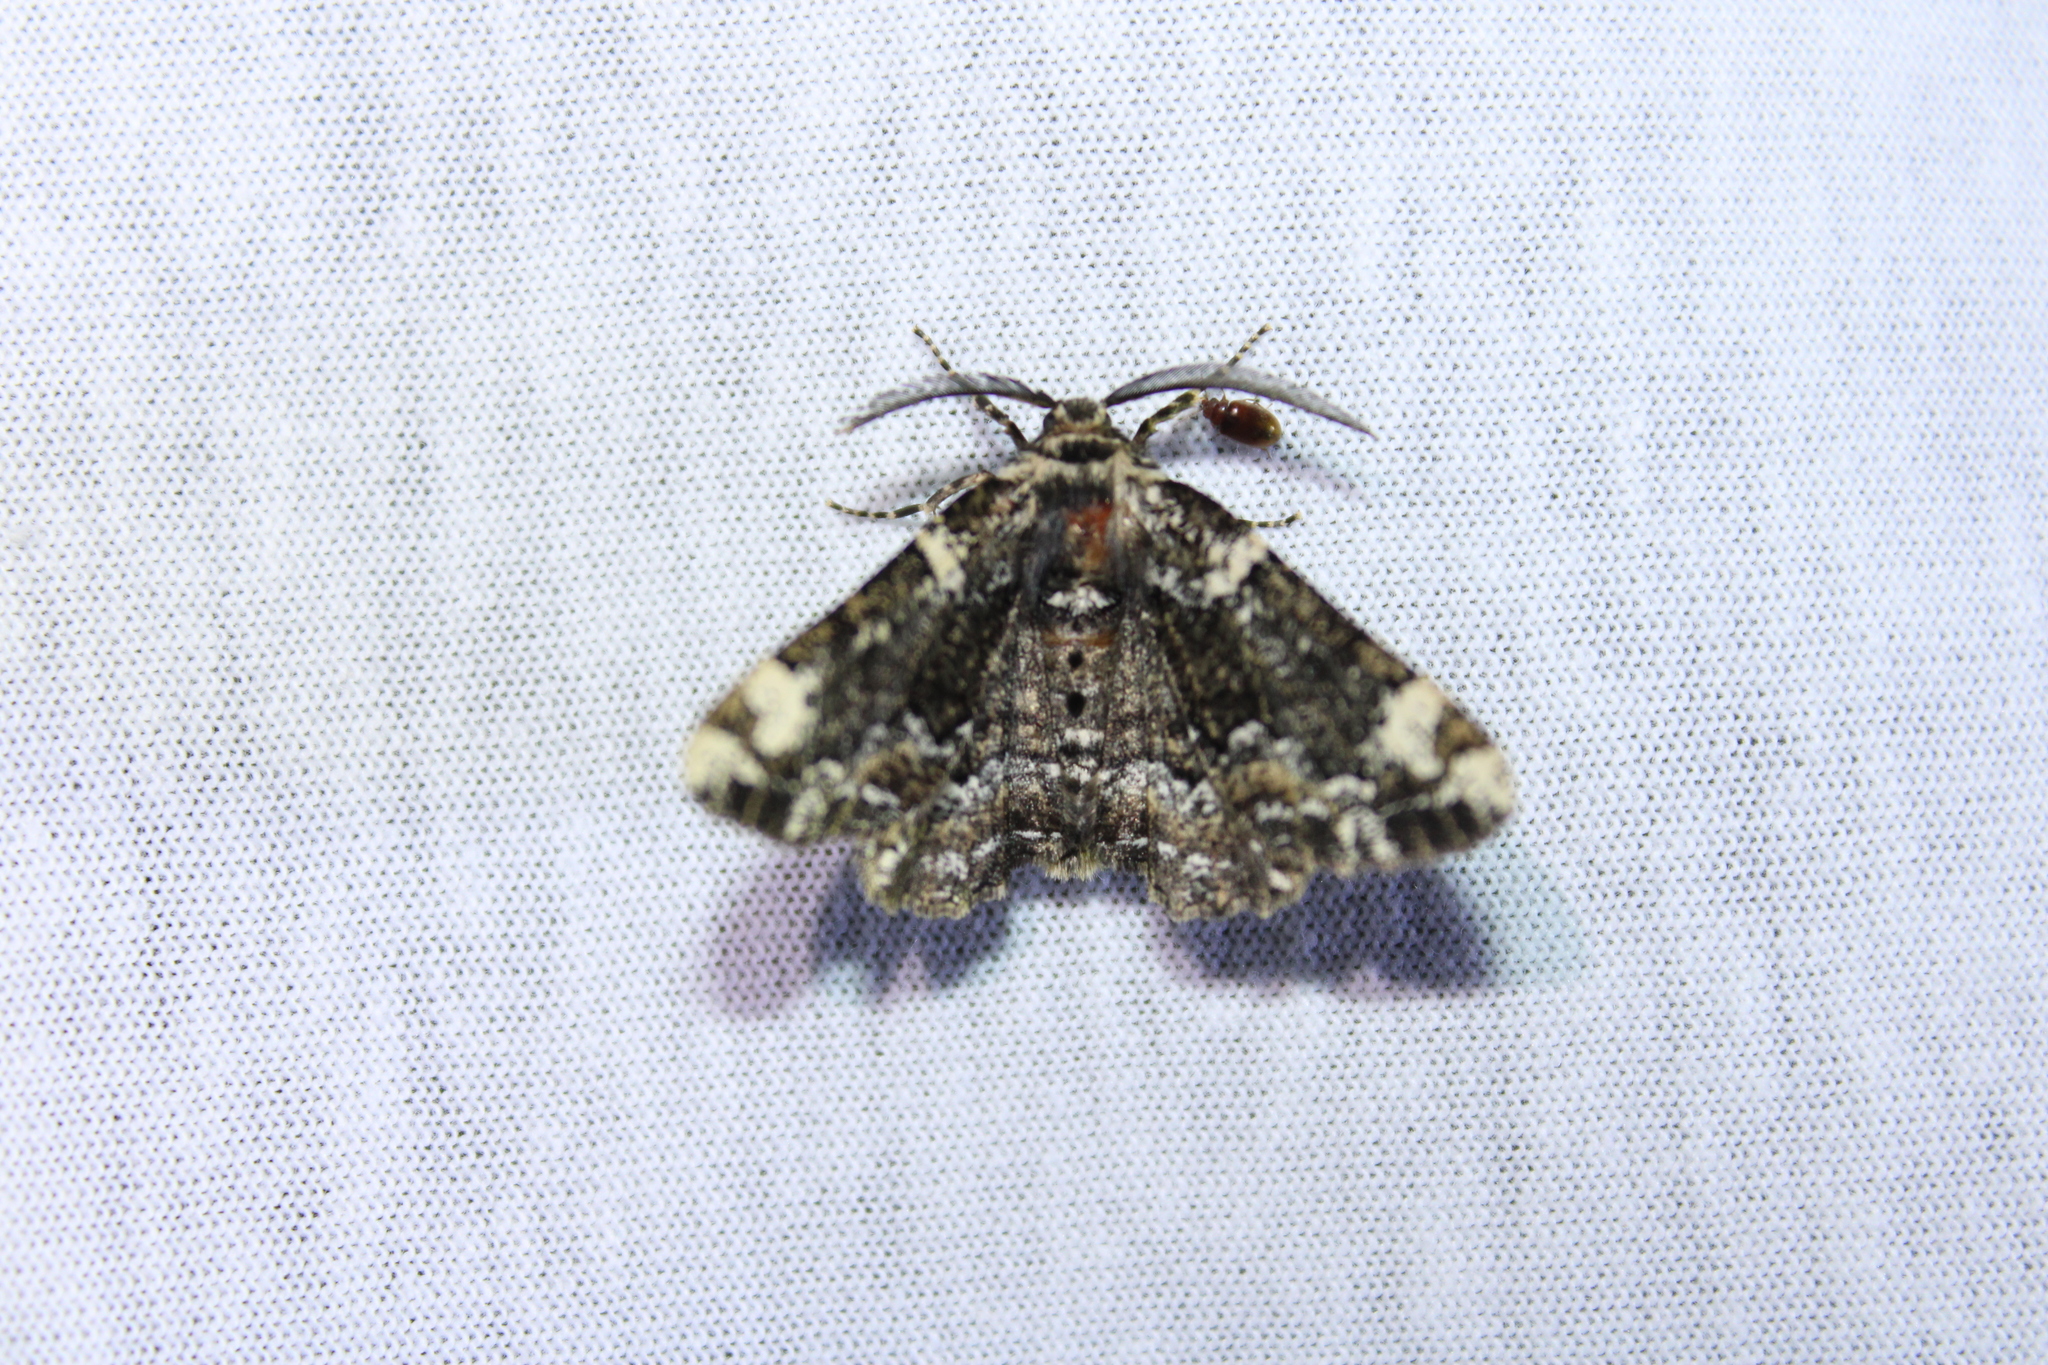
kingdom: Animalia
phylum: Arthropoda
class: Insecta
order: Lepidoptera
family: Geometridae
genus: Phaeoura
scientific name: Phaeoura quernaria
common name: Oak beauty
